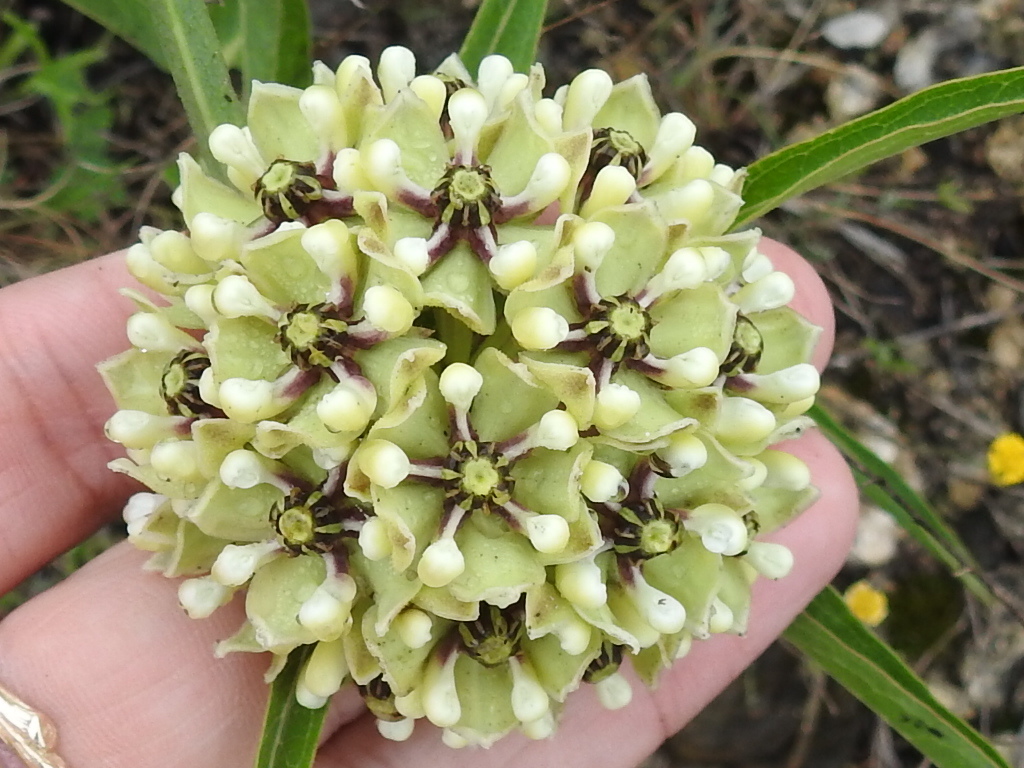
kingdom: Plantae
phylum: Tracheophyta
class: Magnoliopsida
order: Gentianales
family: Apocynaceae
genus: Asclepias
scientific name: Asclepias asperula
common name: Antelope horns
